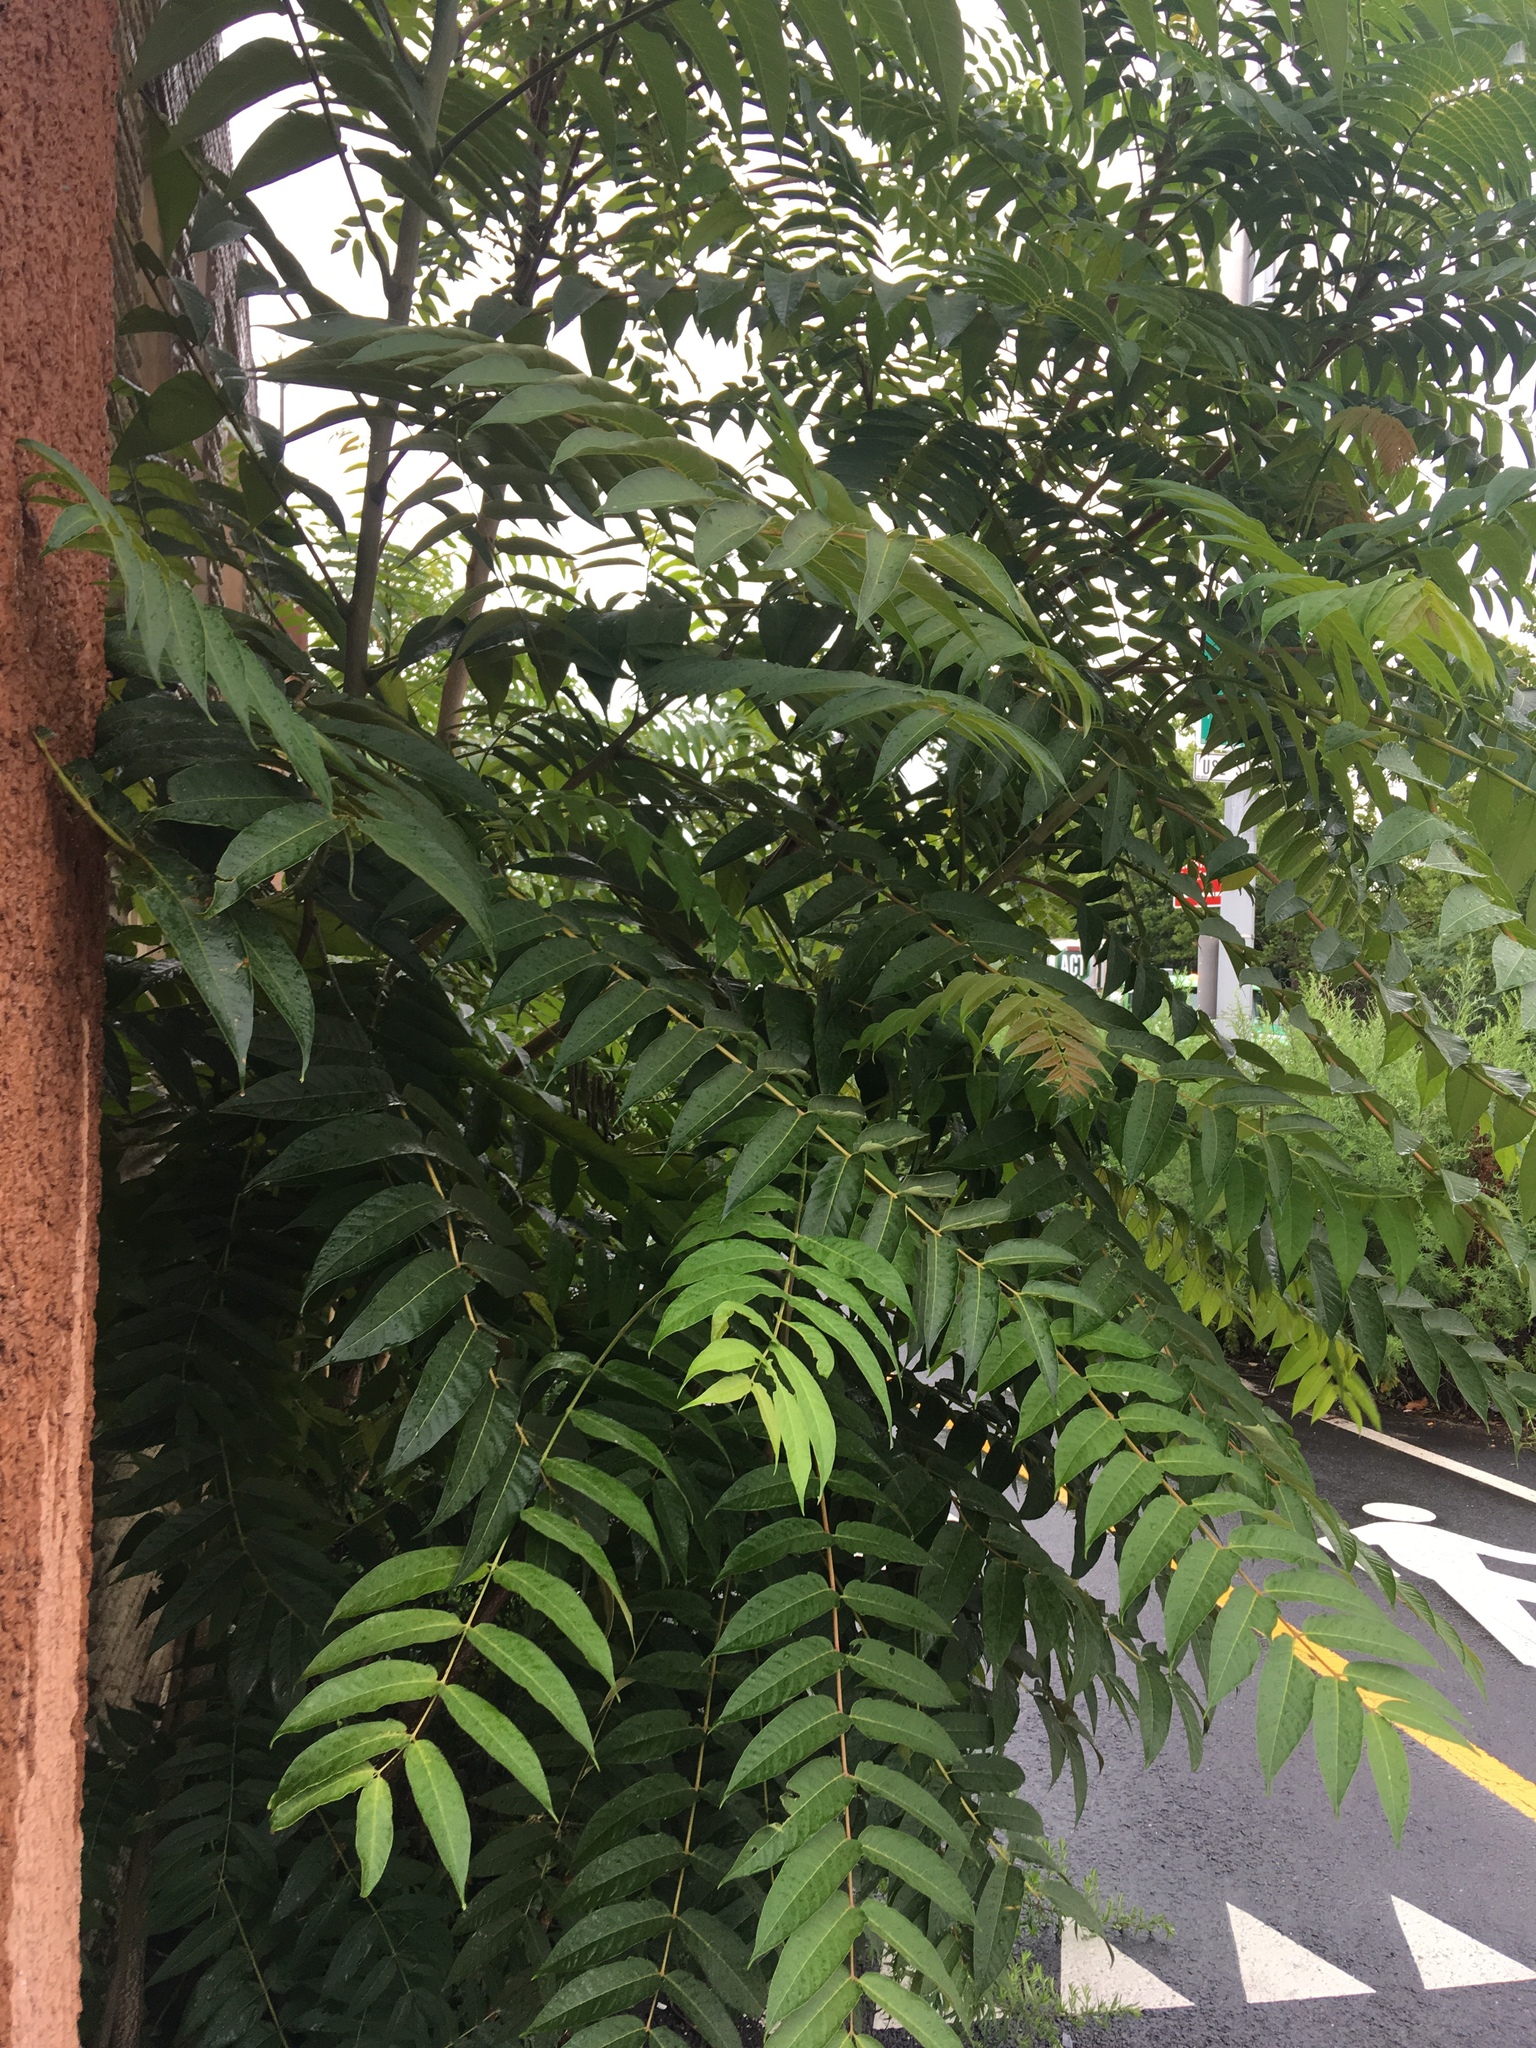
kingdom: Plantae
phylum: Tracheophyta
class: Magnoliopsida
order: Sapindales
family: Simaroubaceae
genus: Ailanthus
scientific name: Ailanthus altissima
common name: Tree-of-heaven
